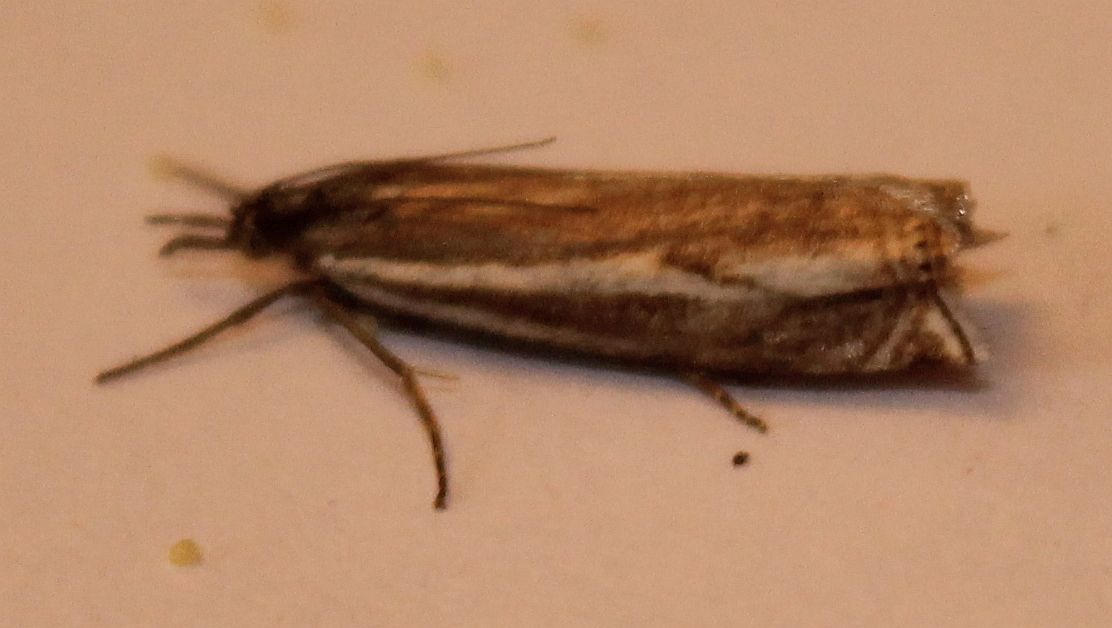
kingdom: Animalia
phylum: Arthropoda
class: Insecta
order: Lepidoptera
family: Crambidae
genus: Crambus
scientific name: Crambus nemorella
